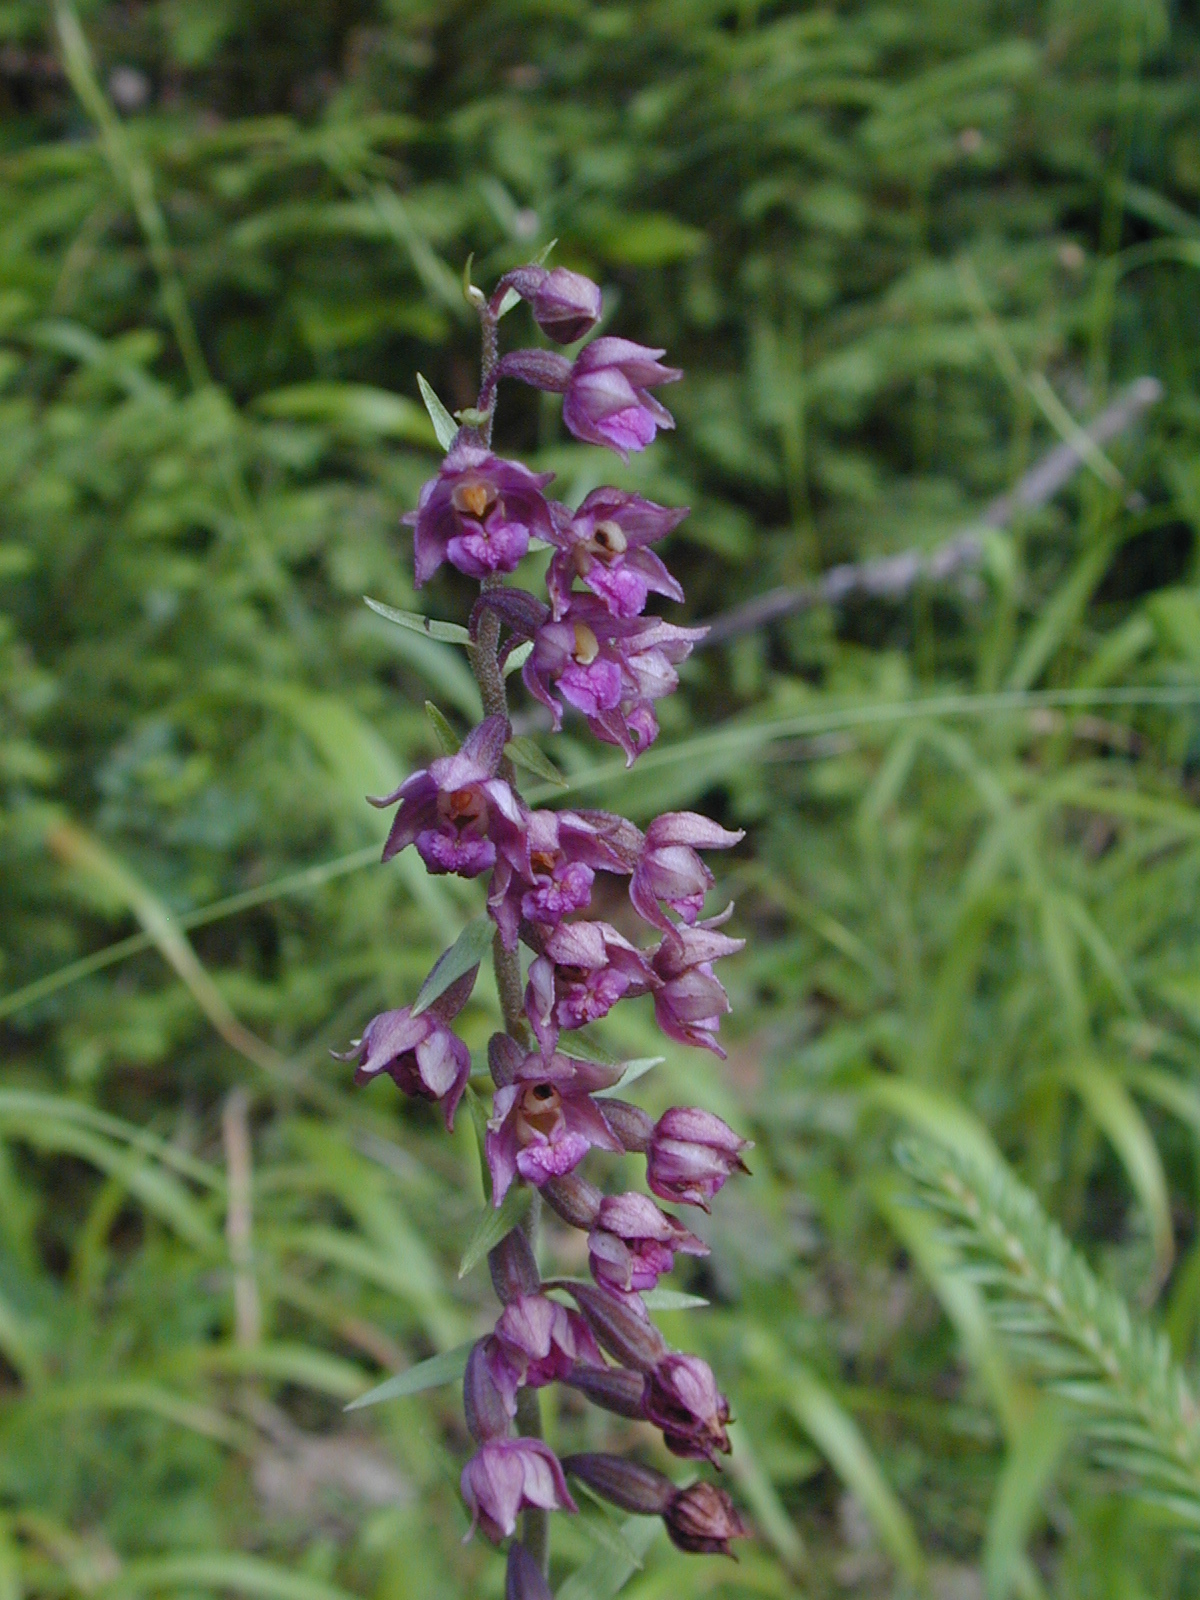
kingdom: Plantae
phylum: Tracheophyta
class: Liliopsida
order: Asparagales
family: Orchidaceae
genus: Epipactis
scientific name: Epipactis atrorubens
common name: Dark-red helleborine
